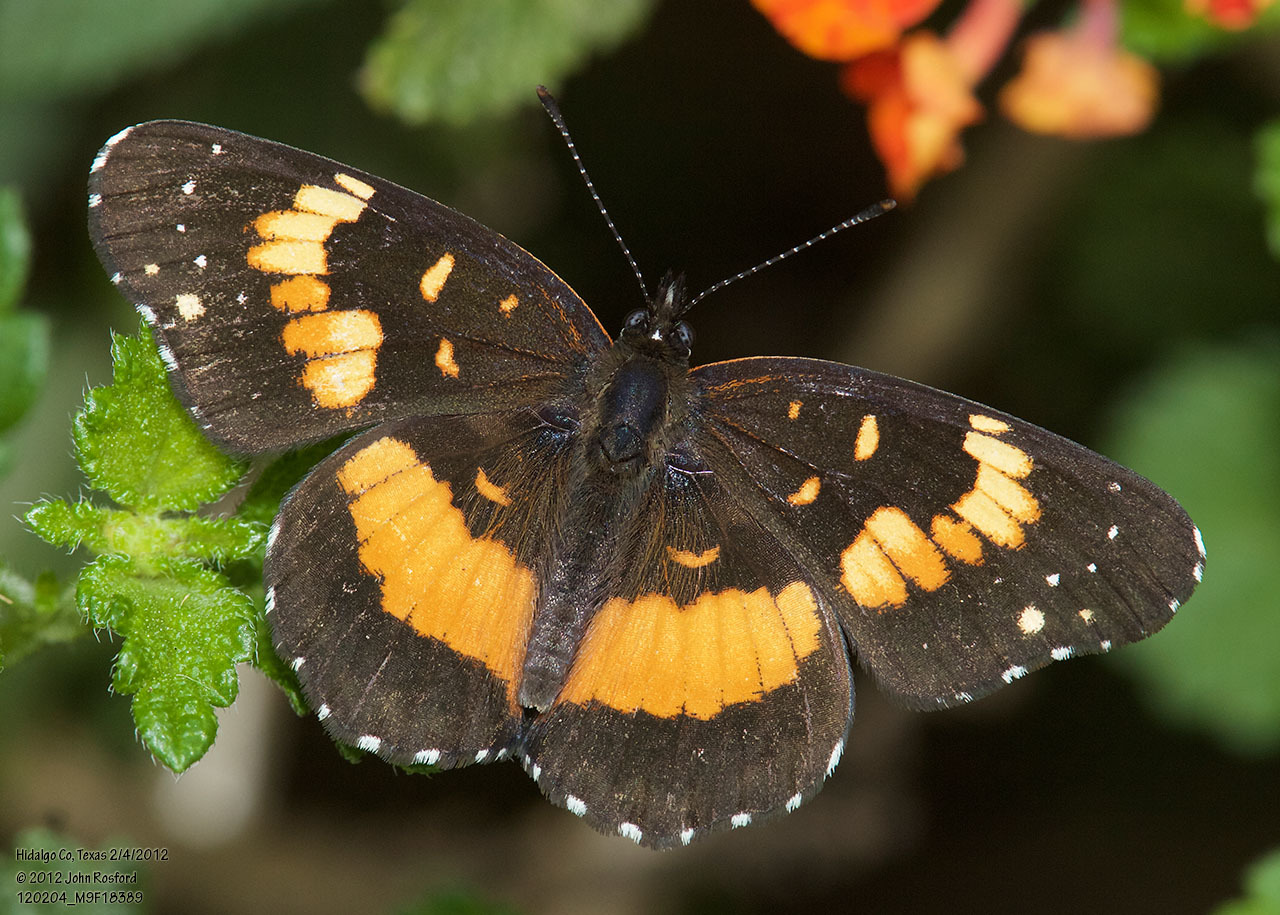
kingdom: Animalia
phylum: Arthropoda
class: Insecta
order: Lepidoptera
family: Nymphalidae
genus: Chlosyne
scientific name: Chlosyne lacinia
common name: Bordered patch
